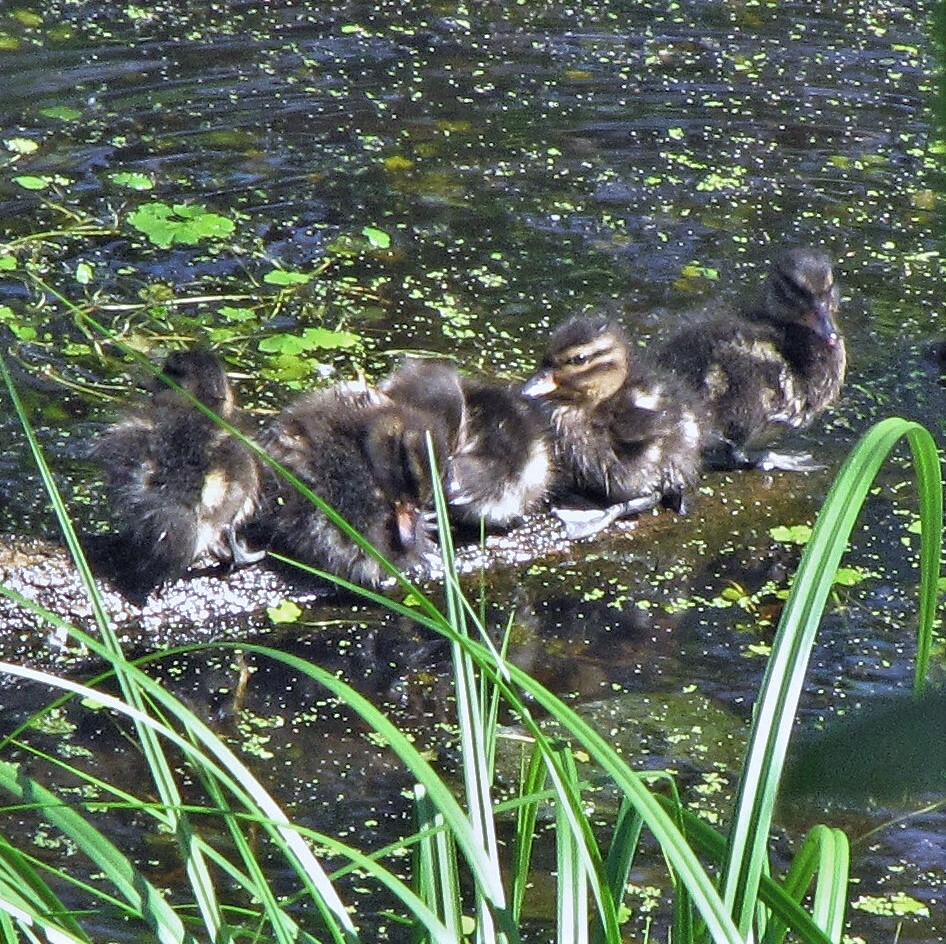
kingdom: Animalia
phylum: Chordata
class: Aves
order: Anseriformes
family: Anatidae
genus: Anas
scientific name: Anas flavirostris
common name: Yellow-billed teal
